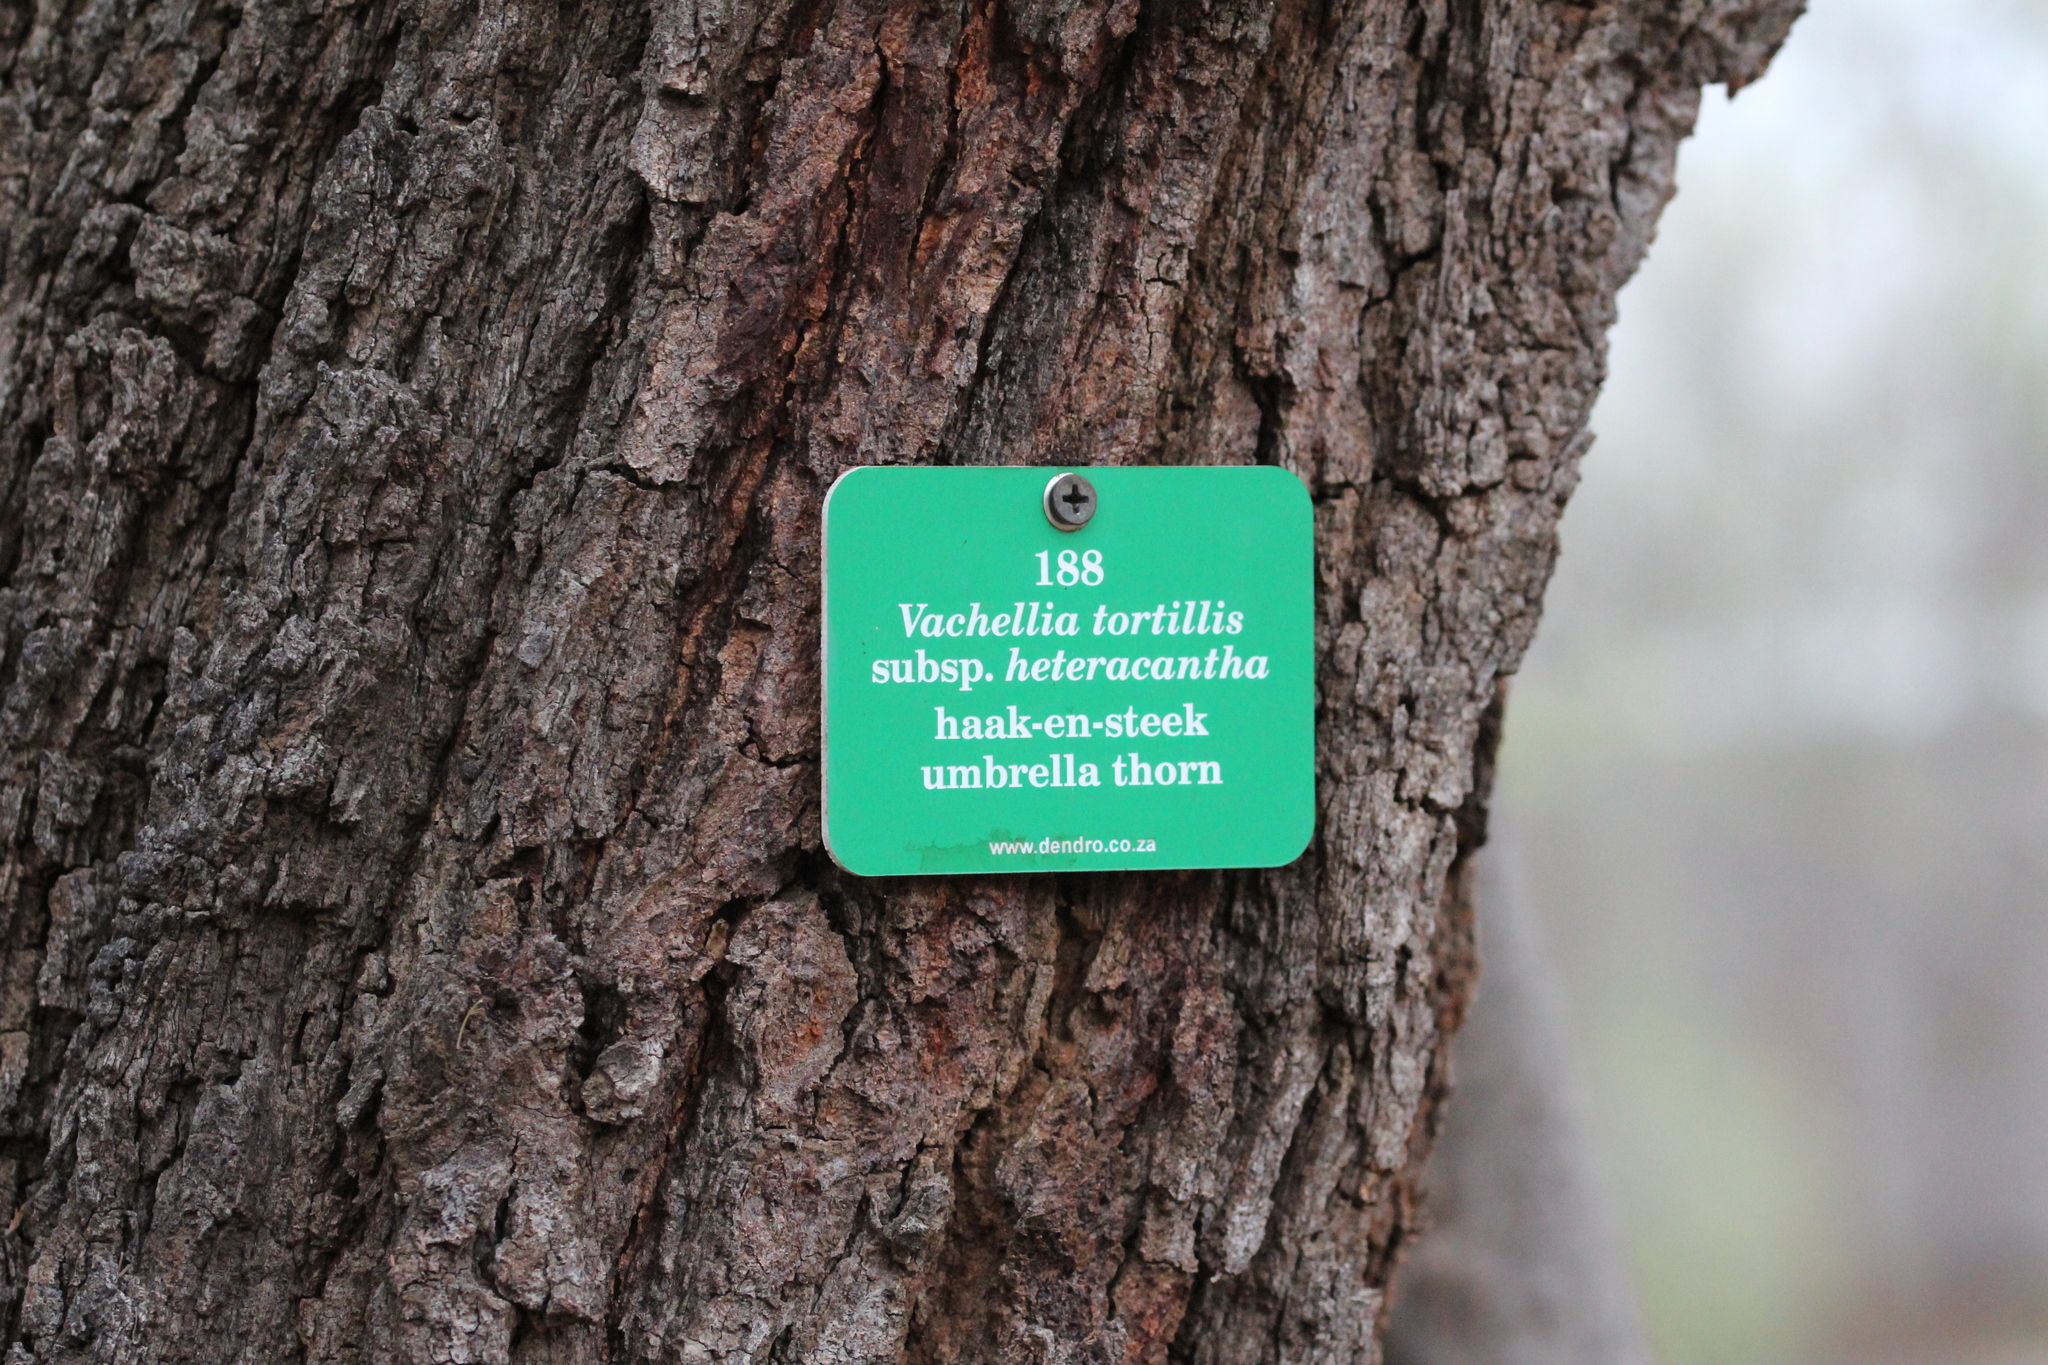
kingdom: Plantae
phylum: Tracheophyta
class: Magnoliopsida
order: Fabales
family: Fabaceae
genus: Vachellia
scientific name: Vachellia tortilis
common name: Umbrella thorn acacia
